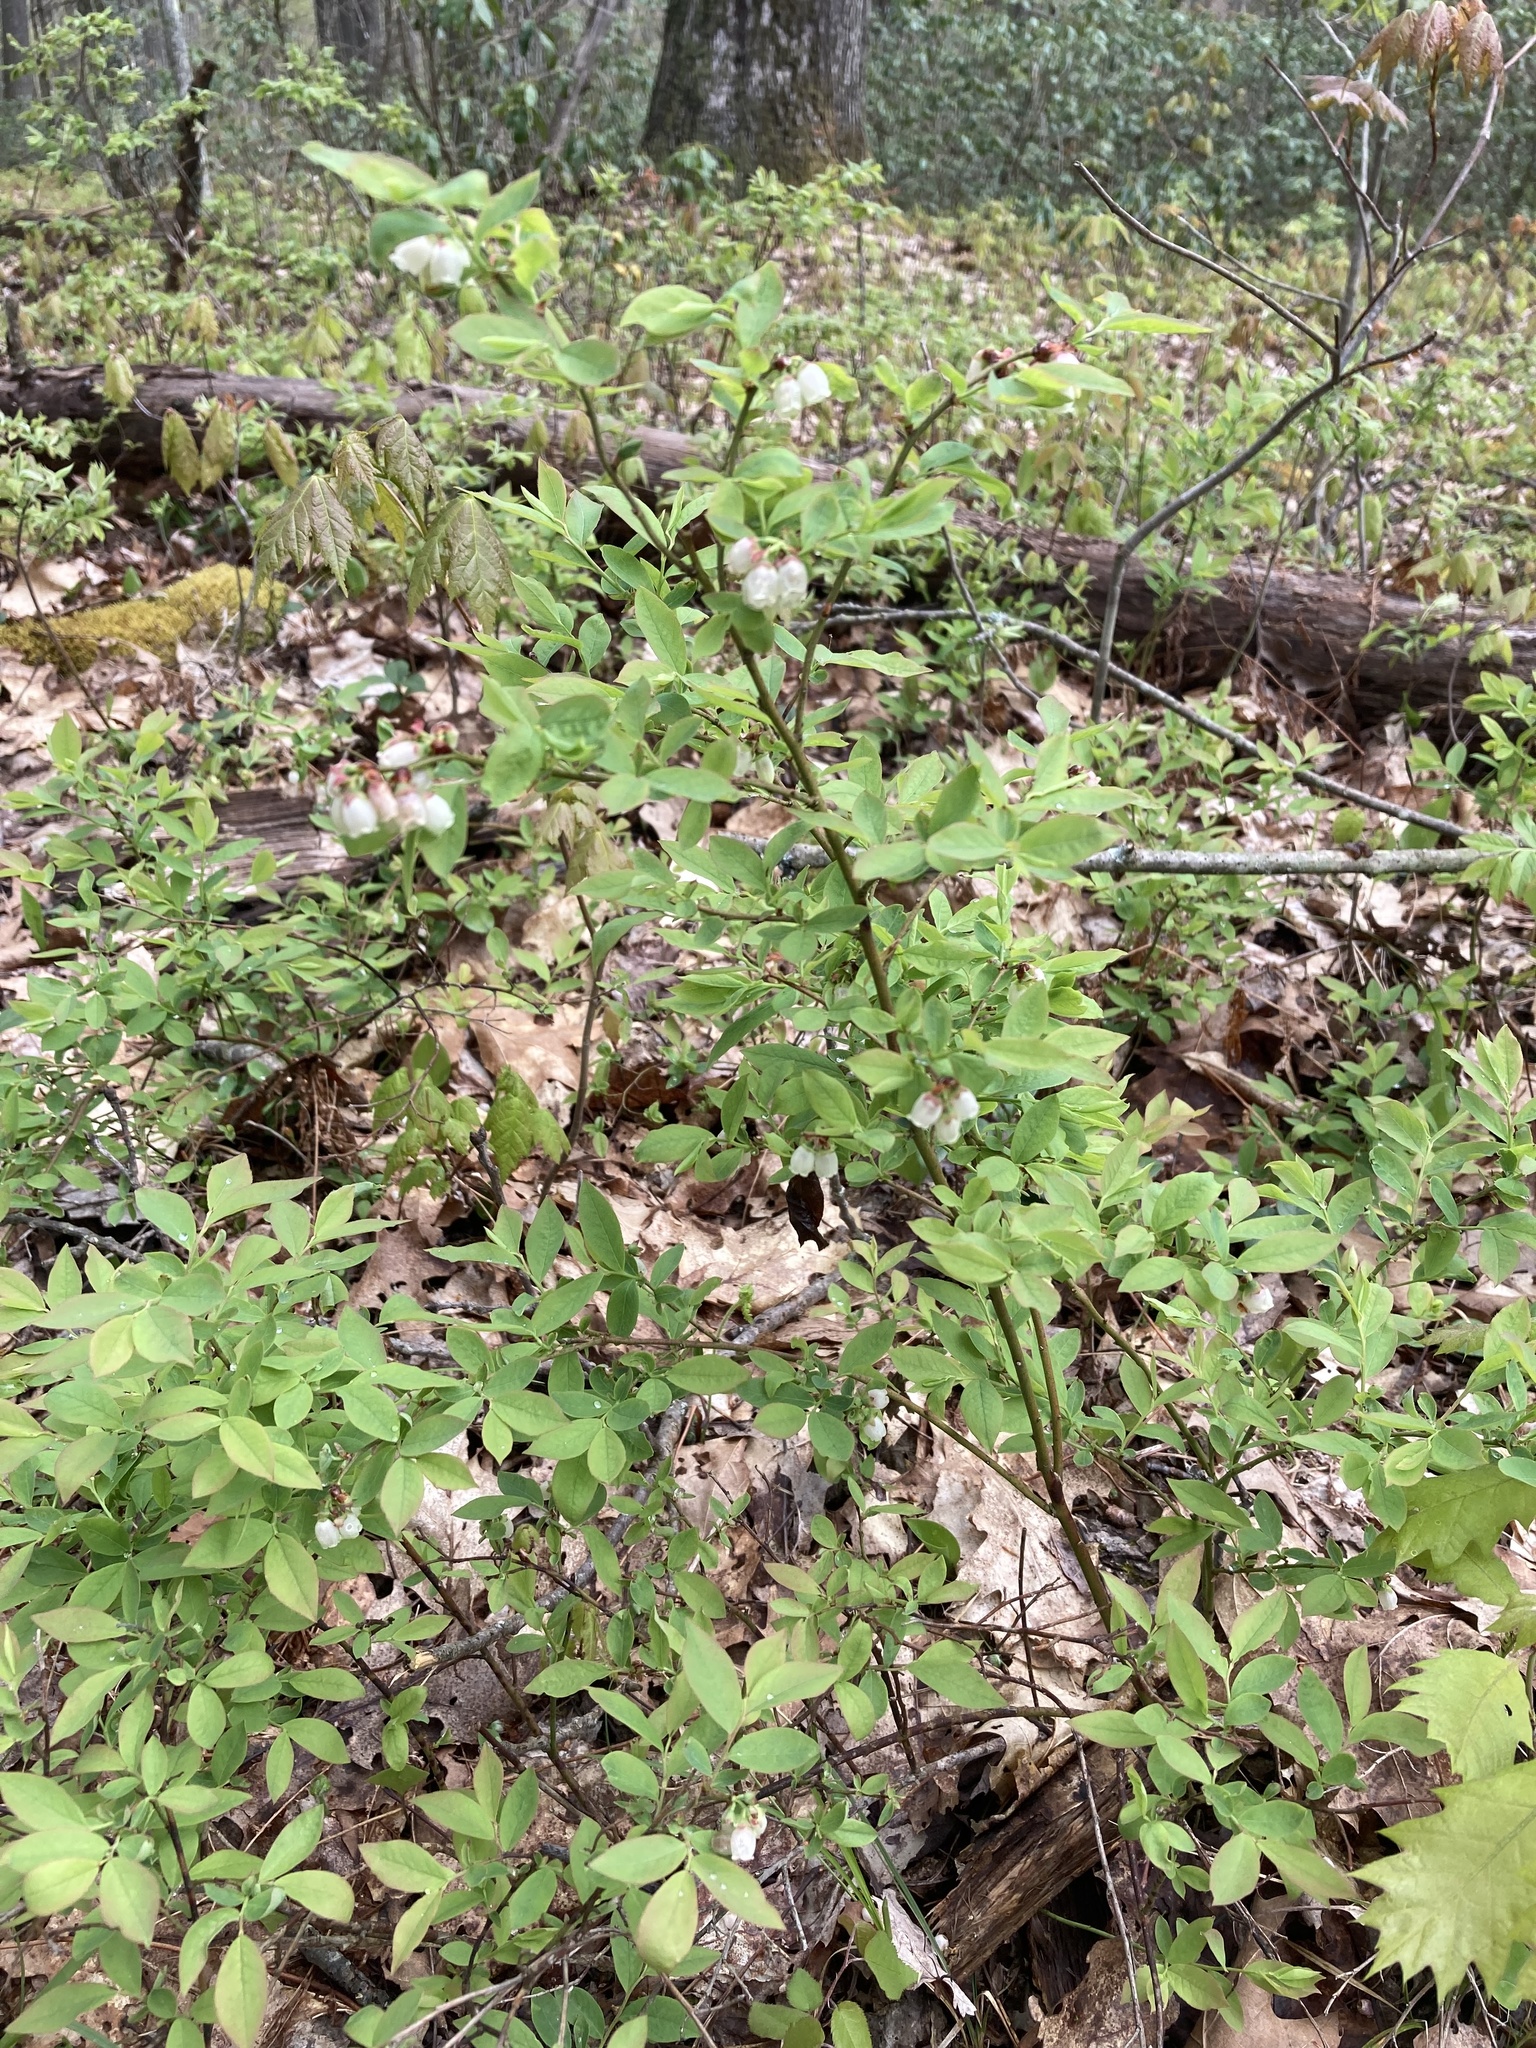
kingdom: Plantae
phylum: Tracheophyta
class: Magnoliopsida
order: Ericales
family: Ericaceae
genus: Vaccinium
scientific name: Vaccinium angustifolium
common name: Early lowbush blueberry
